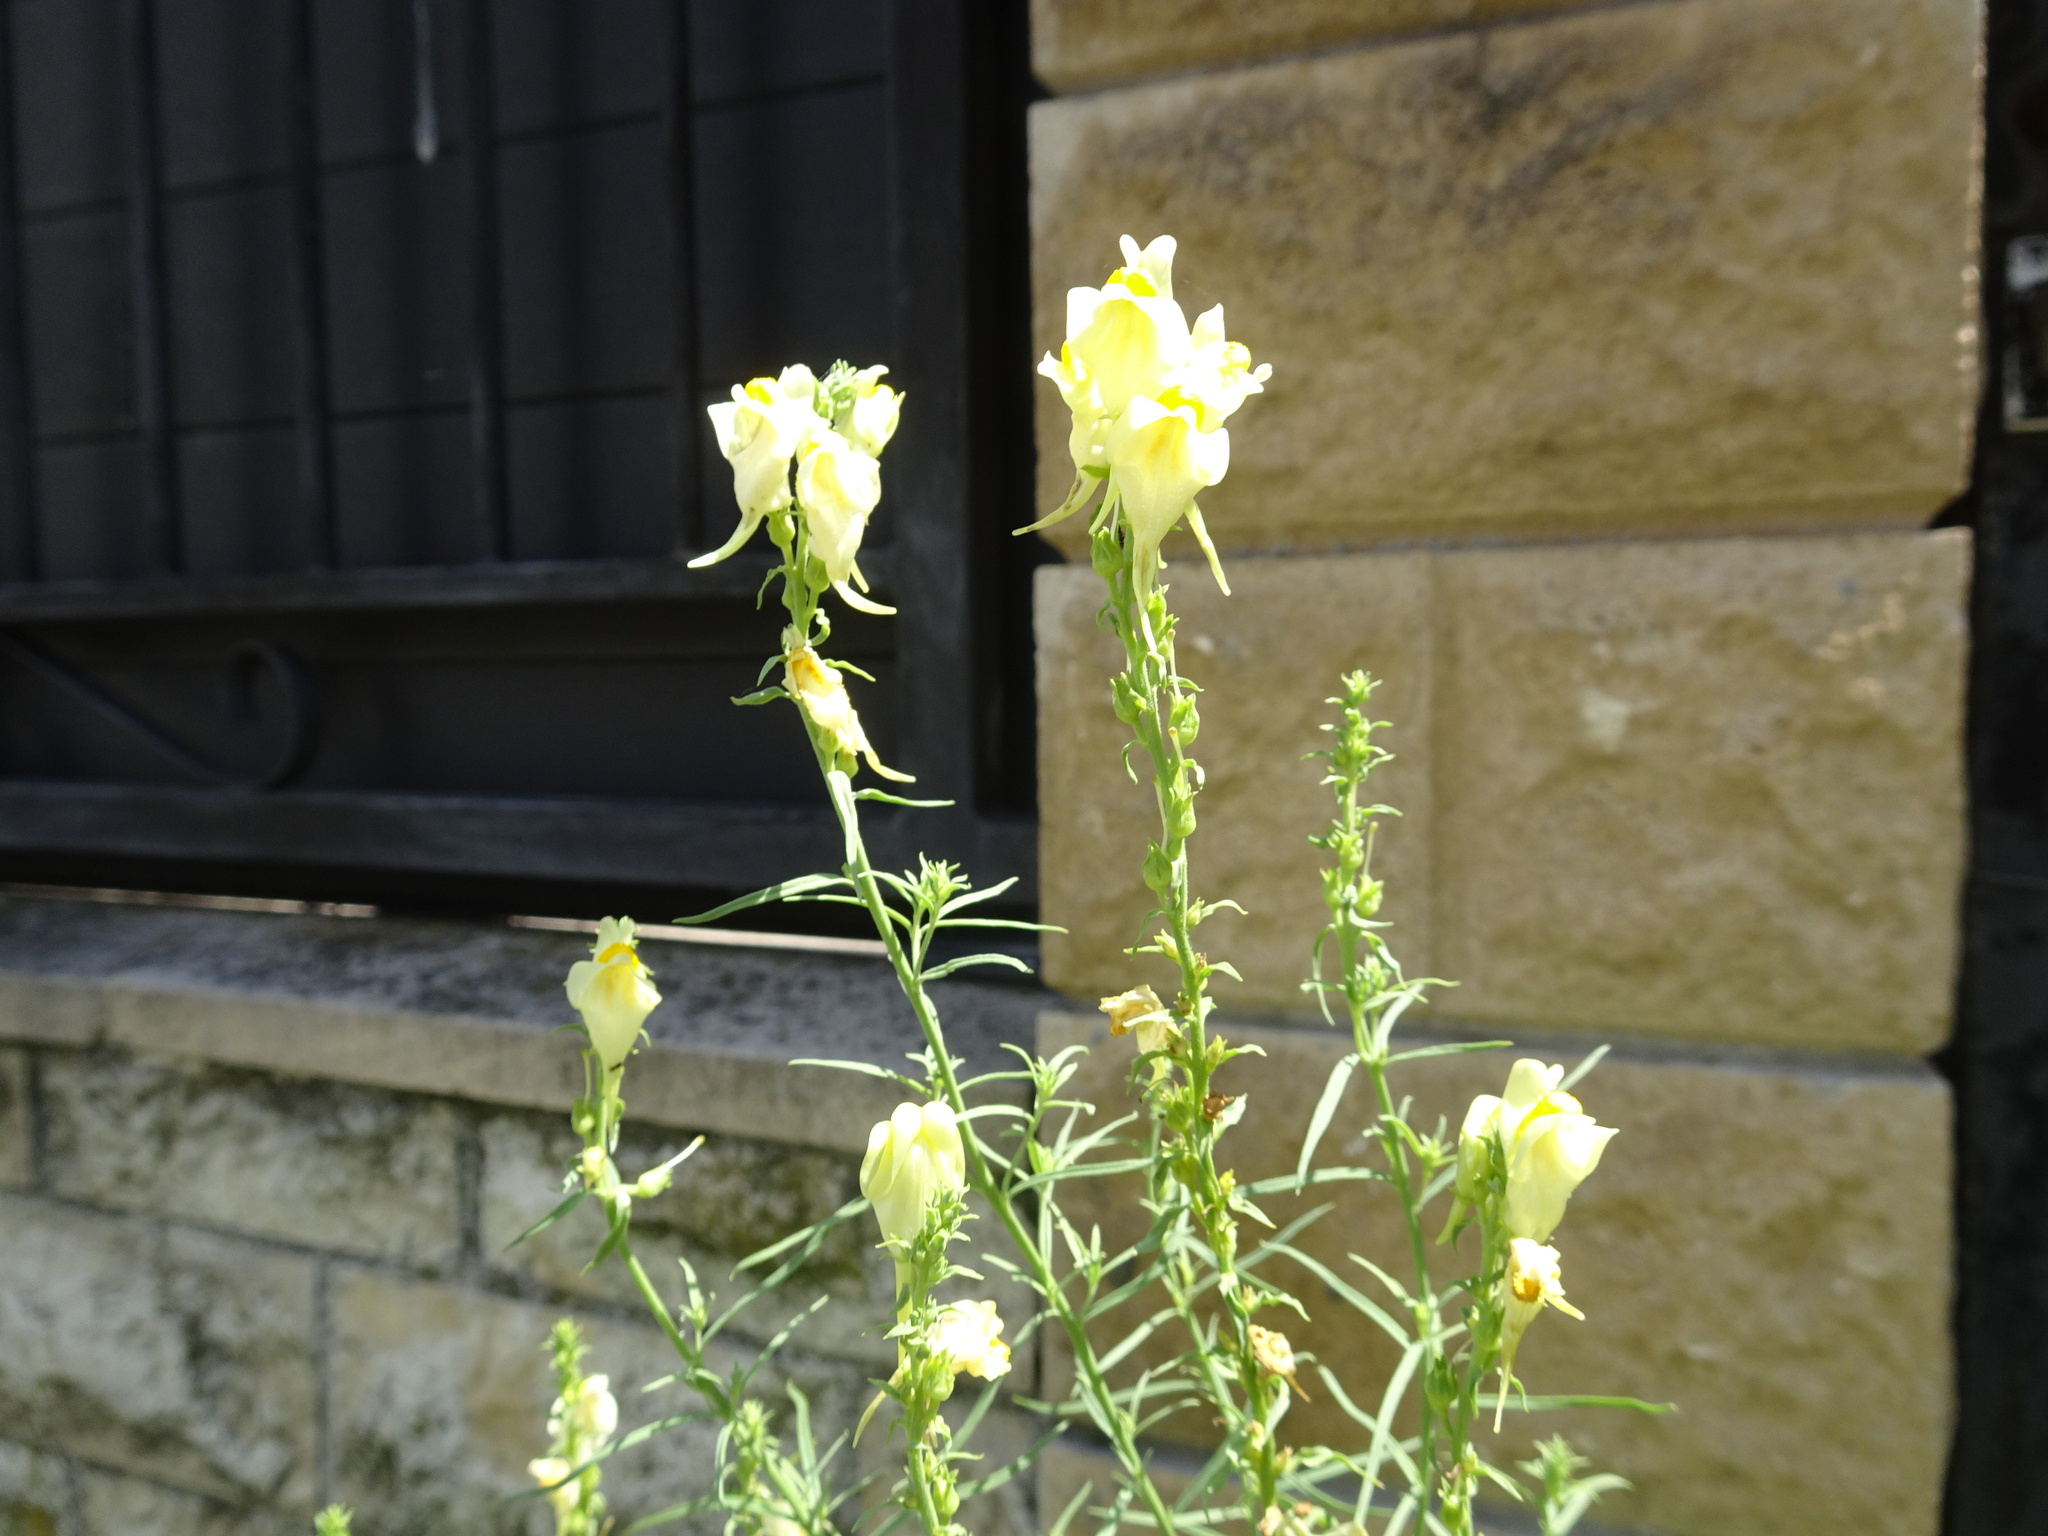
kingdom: Plantae
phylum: Tracheophyta
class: Magnoliopsida
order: Lamiales
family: Plantaginaceae
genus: Linaria
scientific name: Linaria vulgaris
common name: Butter and eggs
